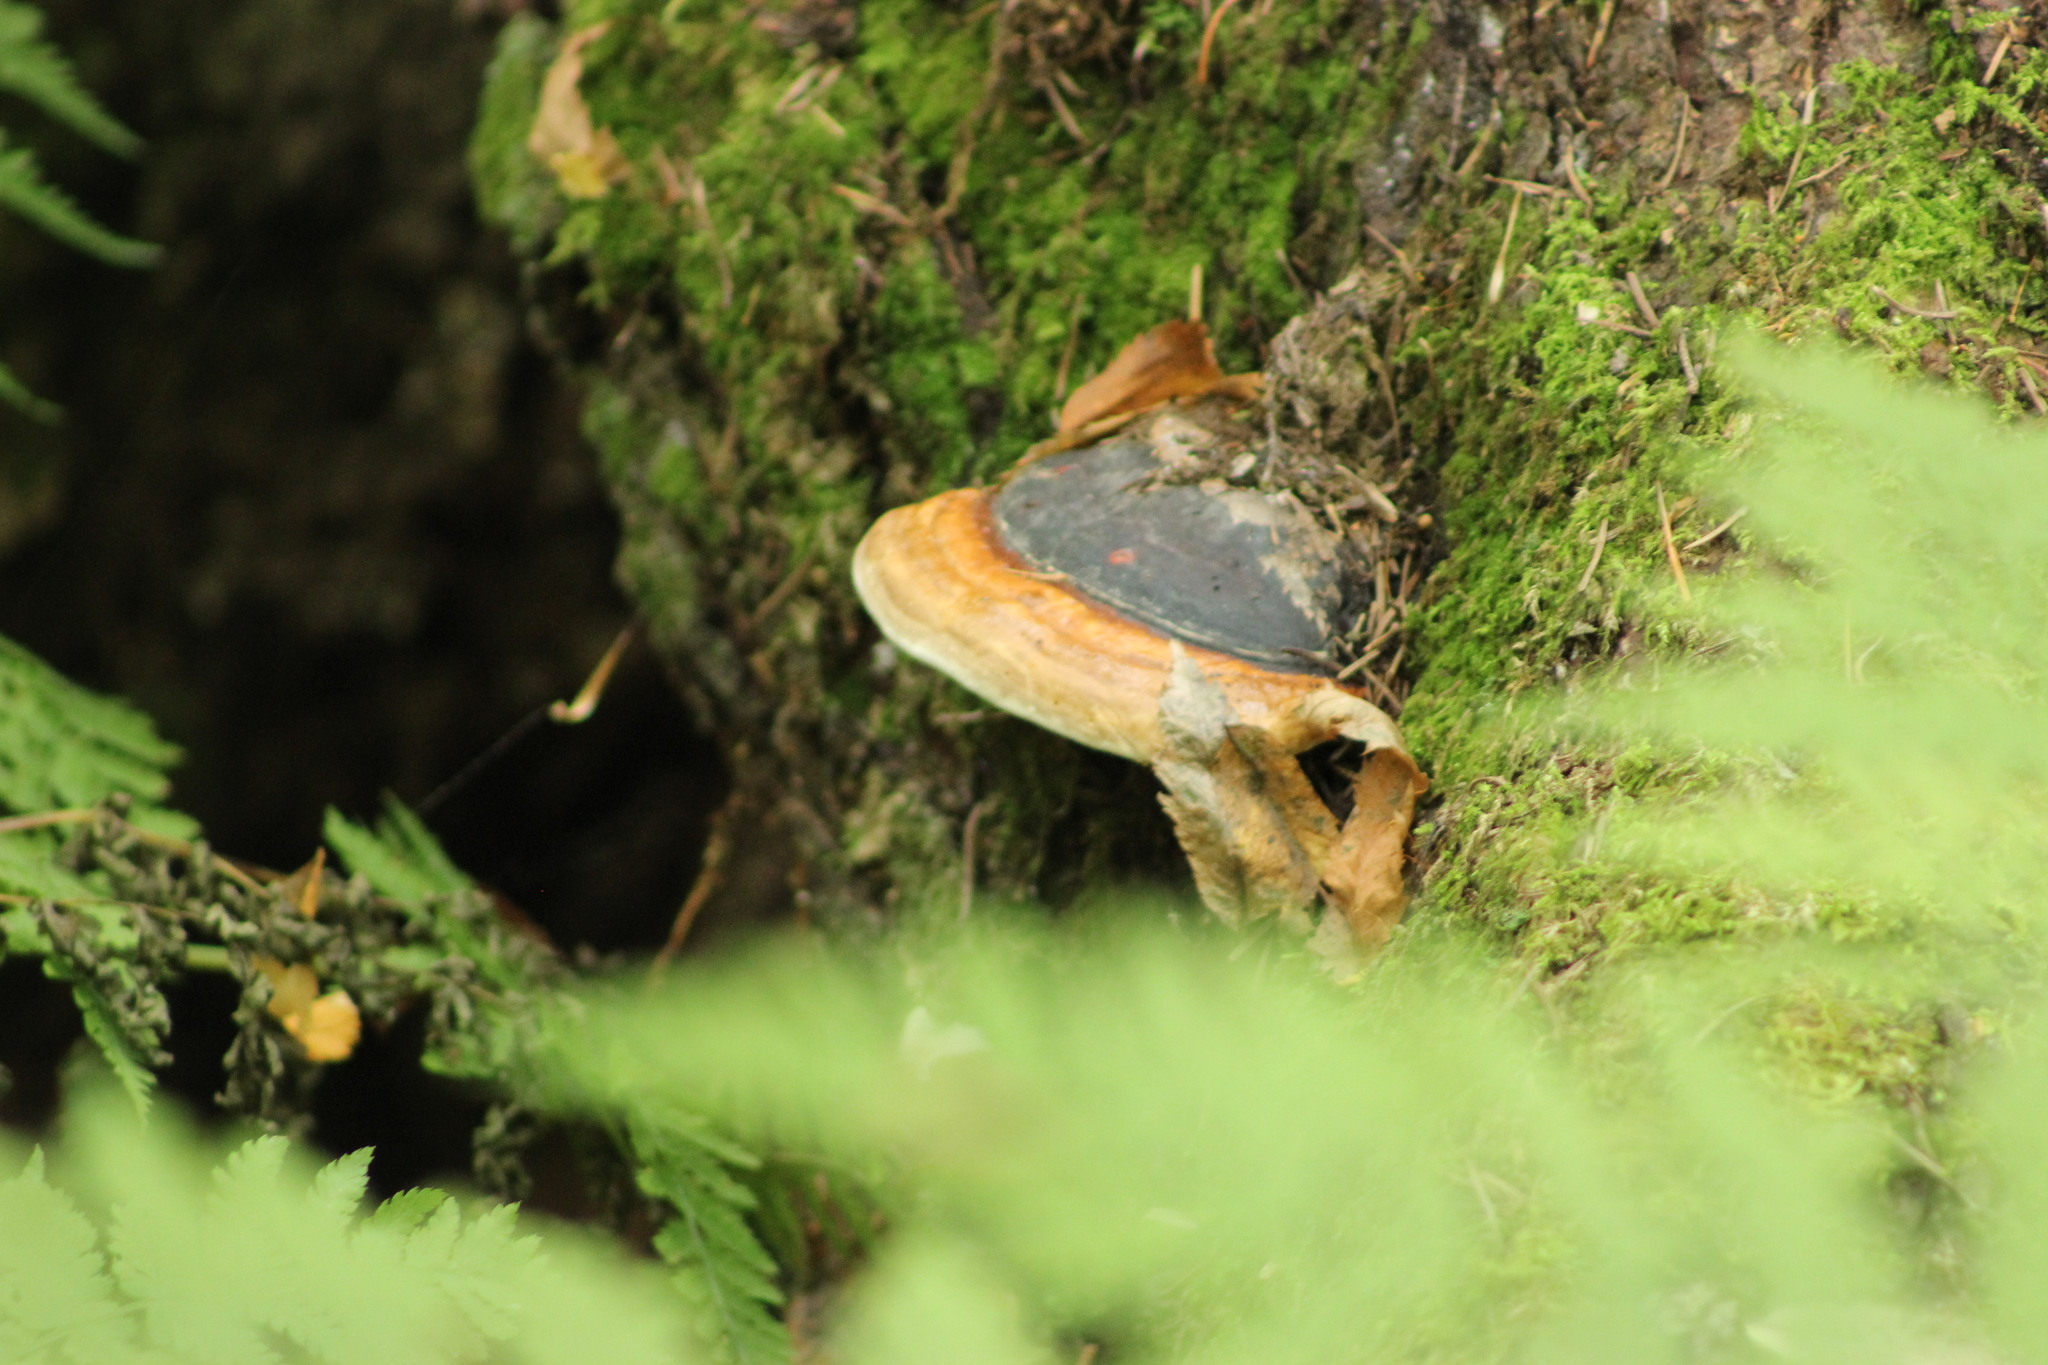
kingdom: Fungi
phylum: Basidiomycota
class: Agaricomycetes
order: Polyporales
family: Fomitopsidaceae
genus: Fomitopsis
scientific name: Fomitopsis pinicola
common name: Red-belted bracket
